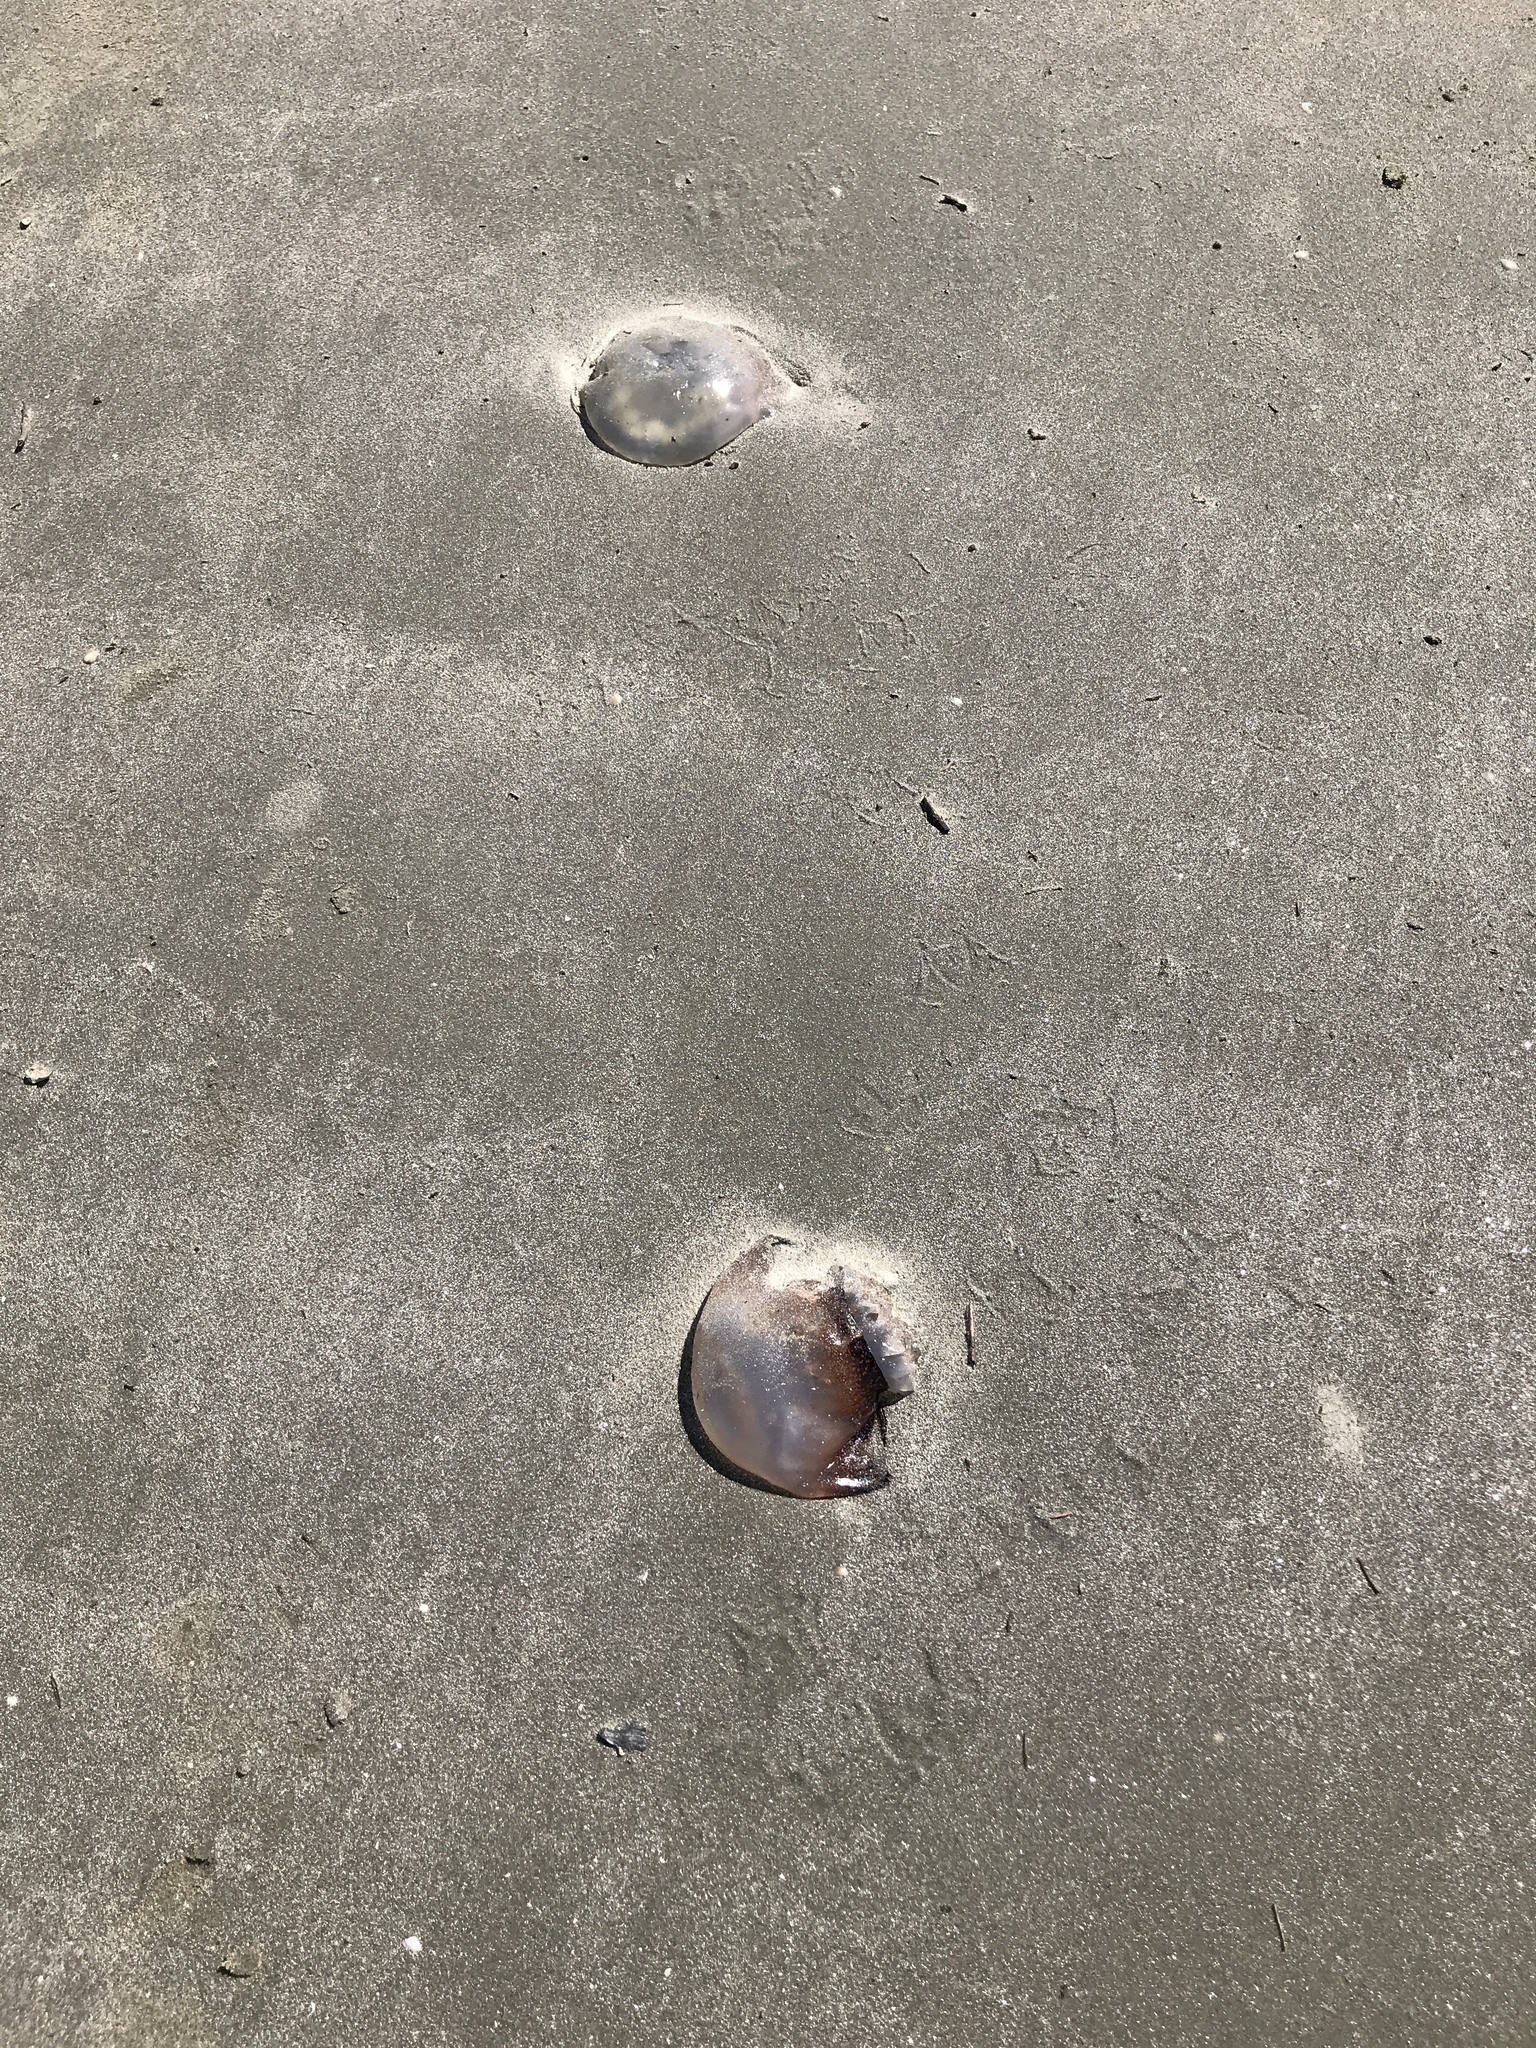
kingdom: Animalia
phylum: Cnidaria
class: Scyphozoa
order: Rhizostomeae
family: Stomolophidae
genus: Stomolophus
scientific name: Stomolophus meleagris
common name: Cabbagehead
